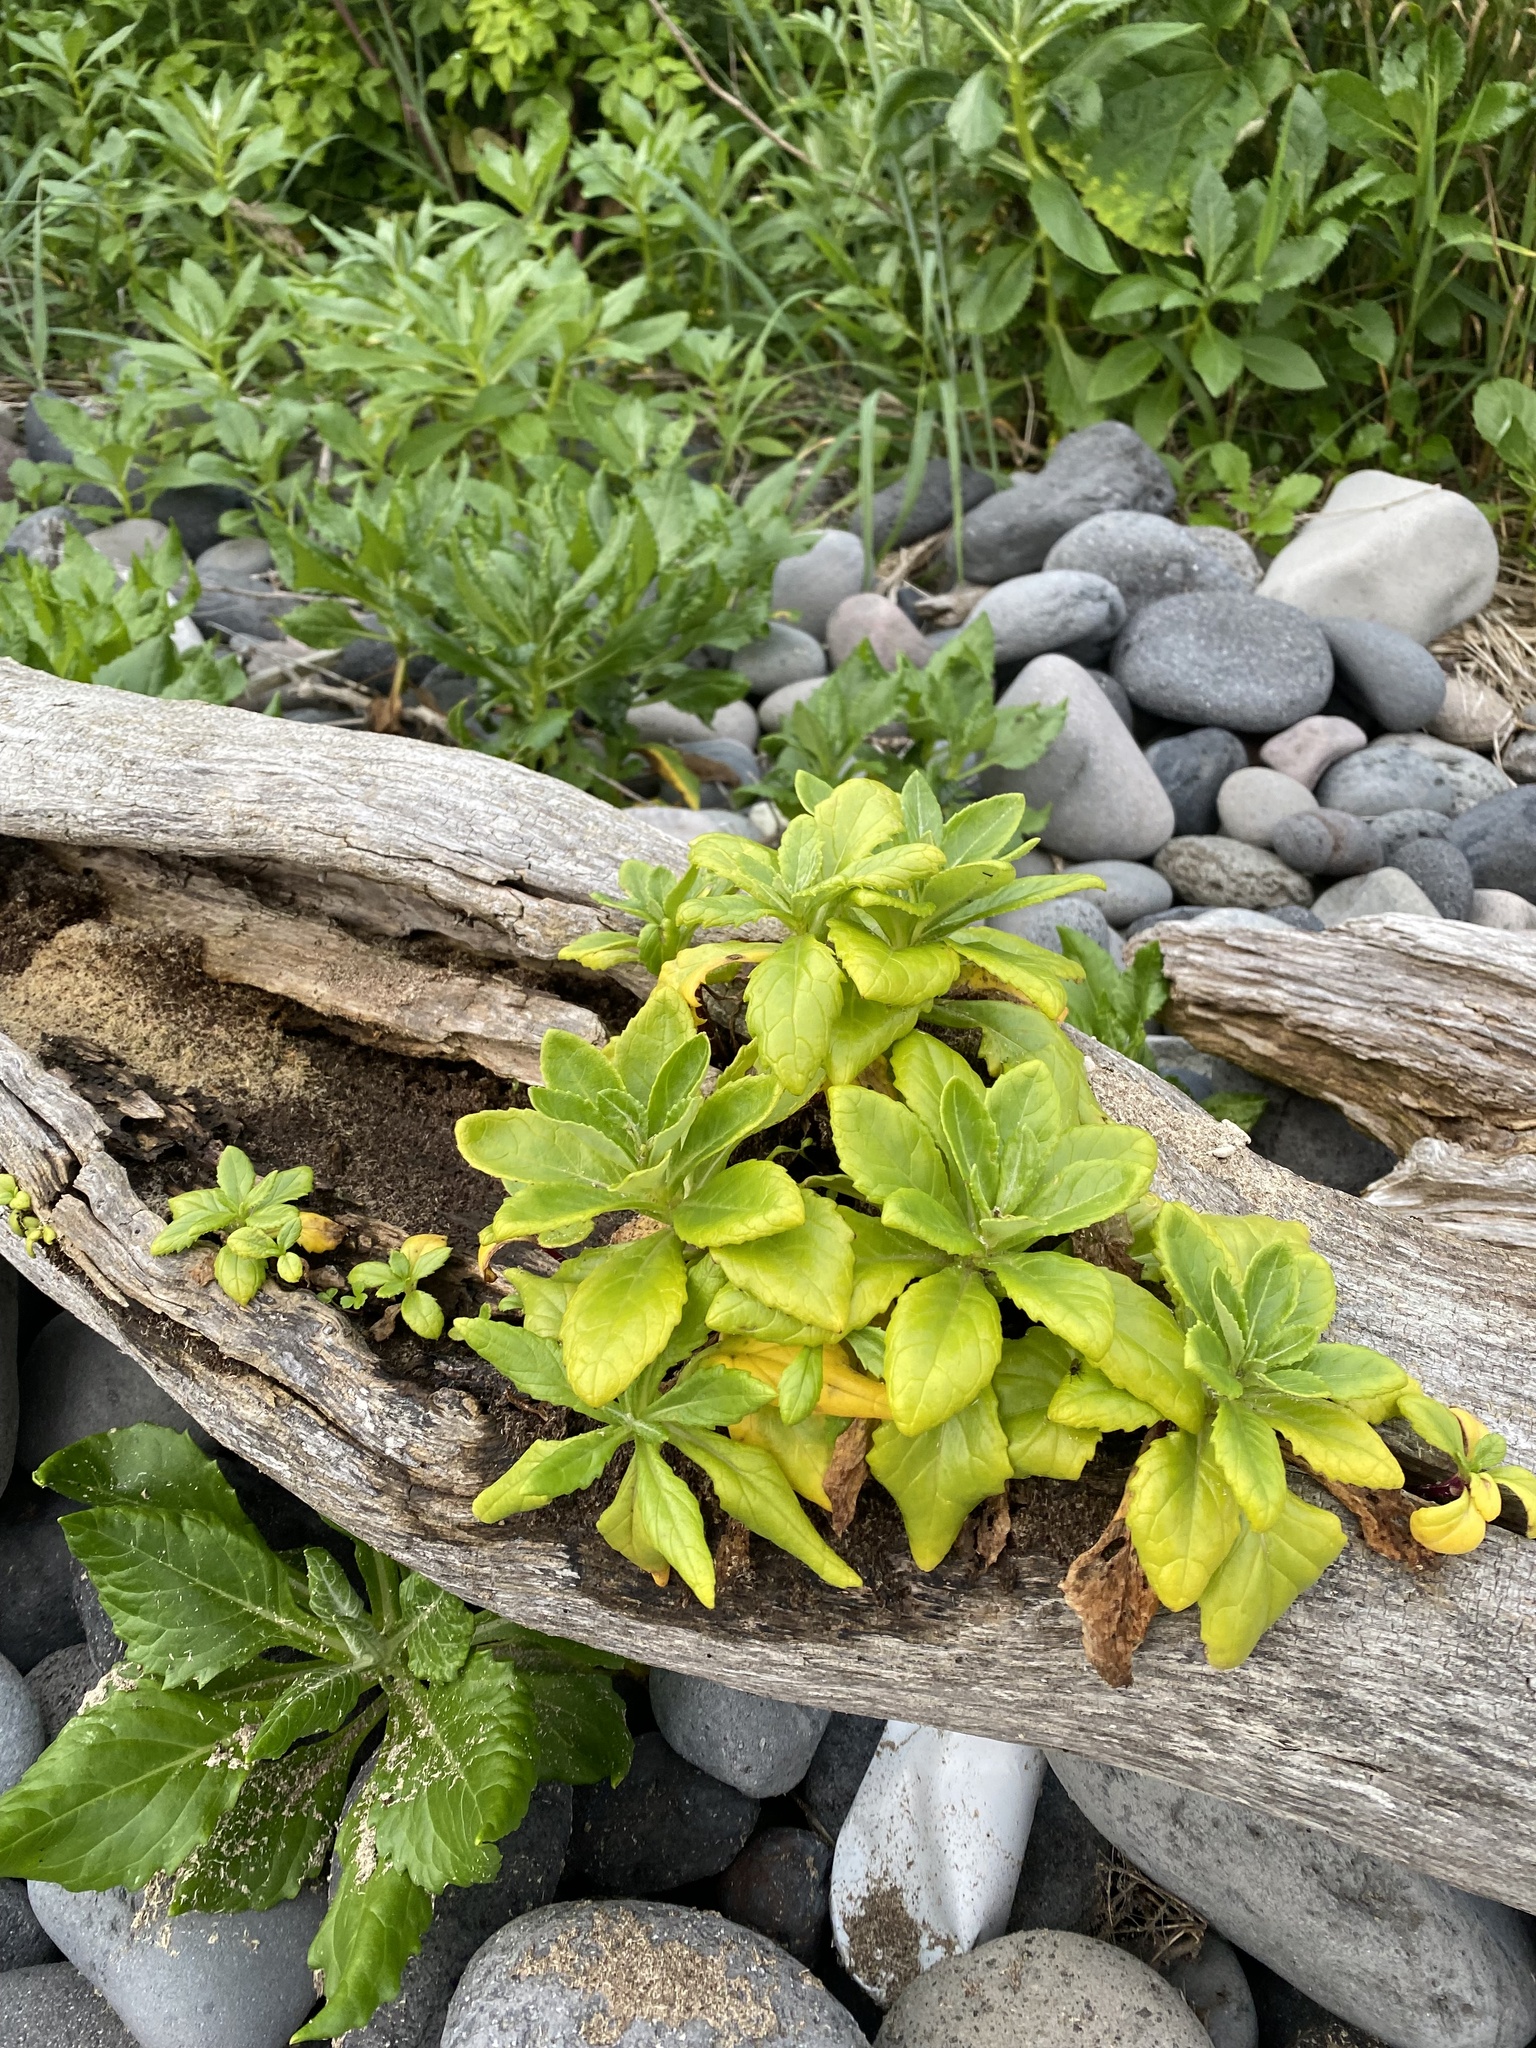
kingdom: Plantae
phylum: Tracheophyta
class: Magnoliopsida
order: Asterales
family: Asteraceae
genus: Jacobaea
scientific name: Jacobaea pseudoarnica
